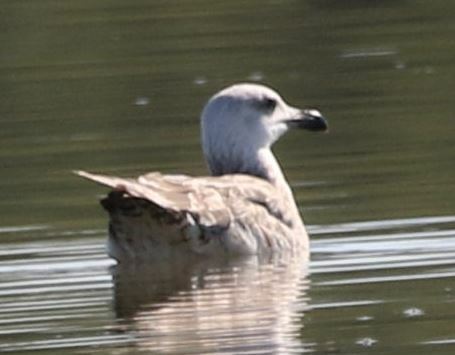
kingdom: Animalia
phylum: Chordata
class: Aves
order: Charadriiformes
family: Laridae
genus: Larus
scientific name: Larus michahellis
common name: Yellow-legged gull
